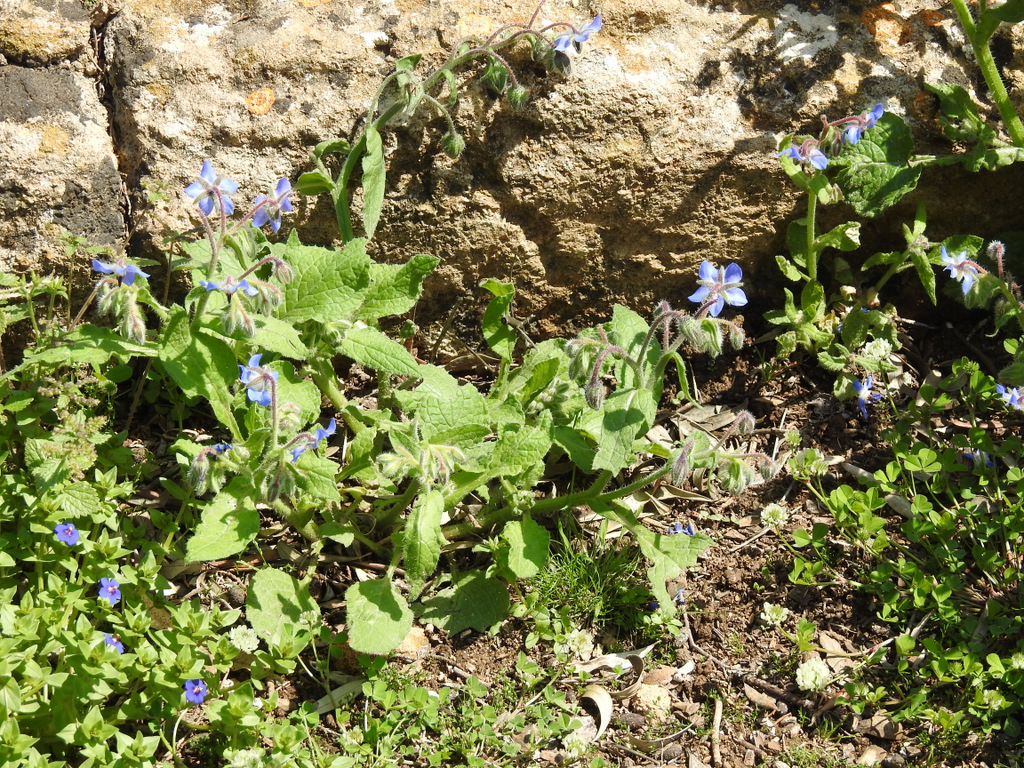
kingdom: Plantae
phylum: Tracheophyta
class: Magnoliopsida
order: Boraginales
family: Boraginaceae
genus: Borago
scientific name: Borago officinalis
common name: Borage
